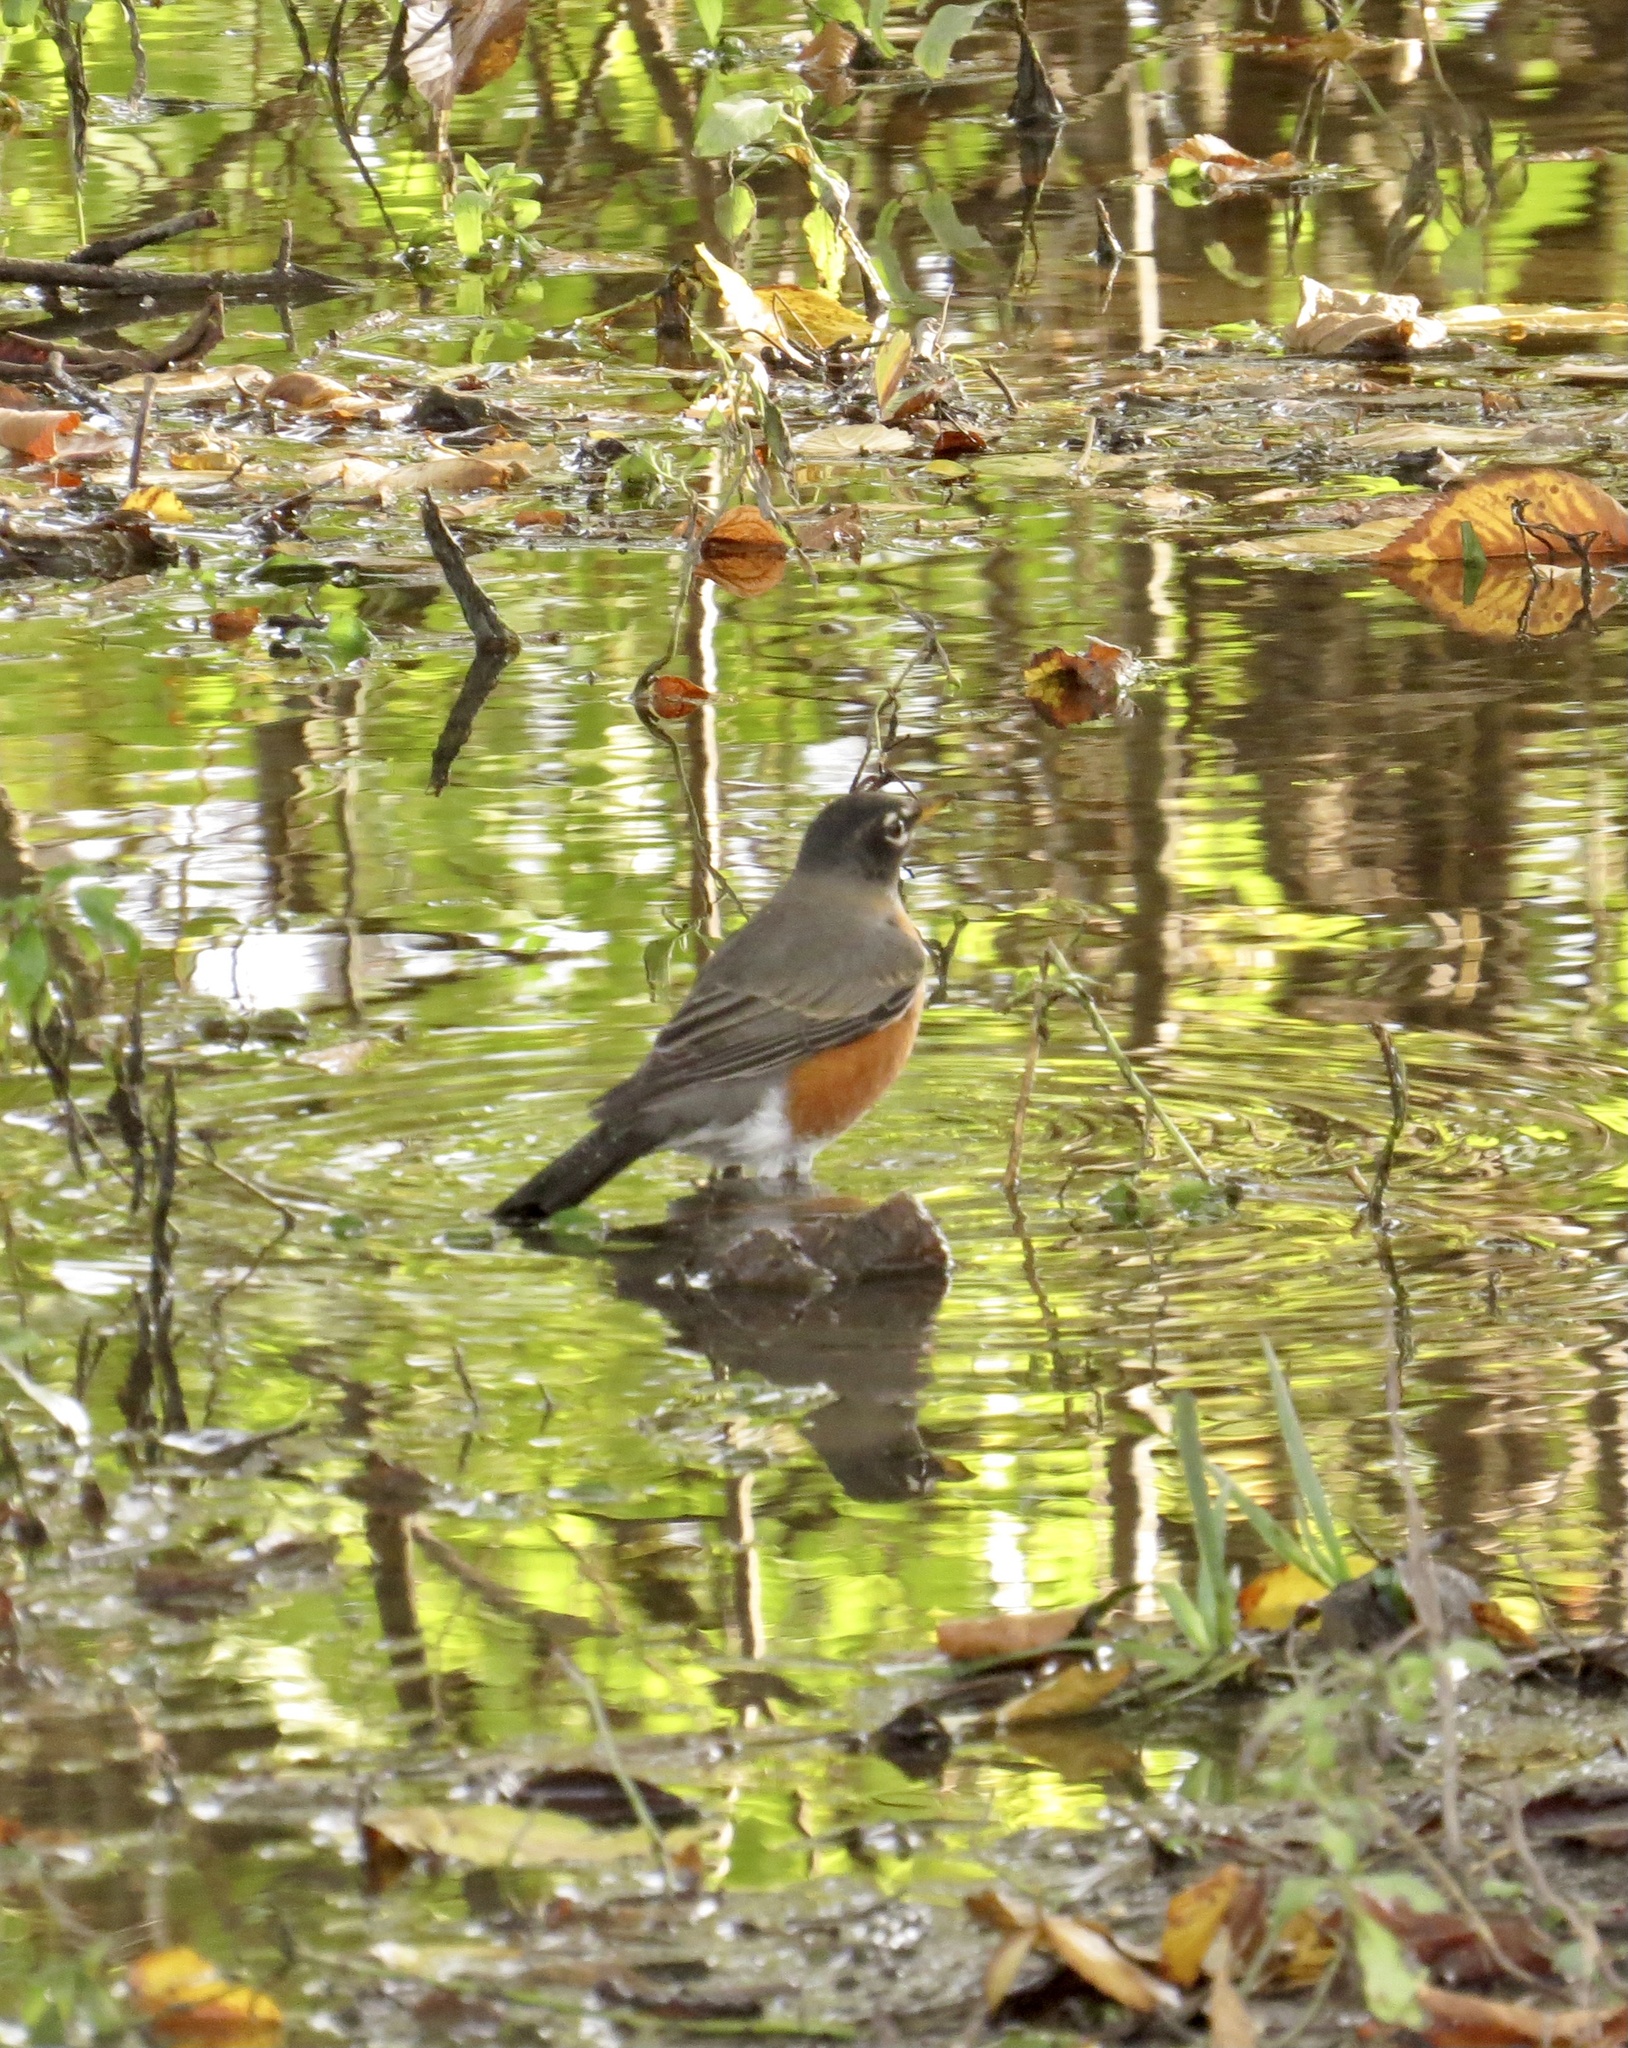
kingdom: Animalia
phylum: Chordata
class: Aves
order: Passeriformes
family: Turdidae
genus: Turdus
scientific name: Turdus migratorius
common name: American robin
